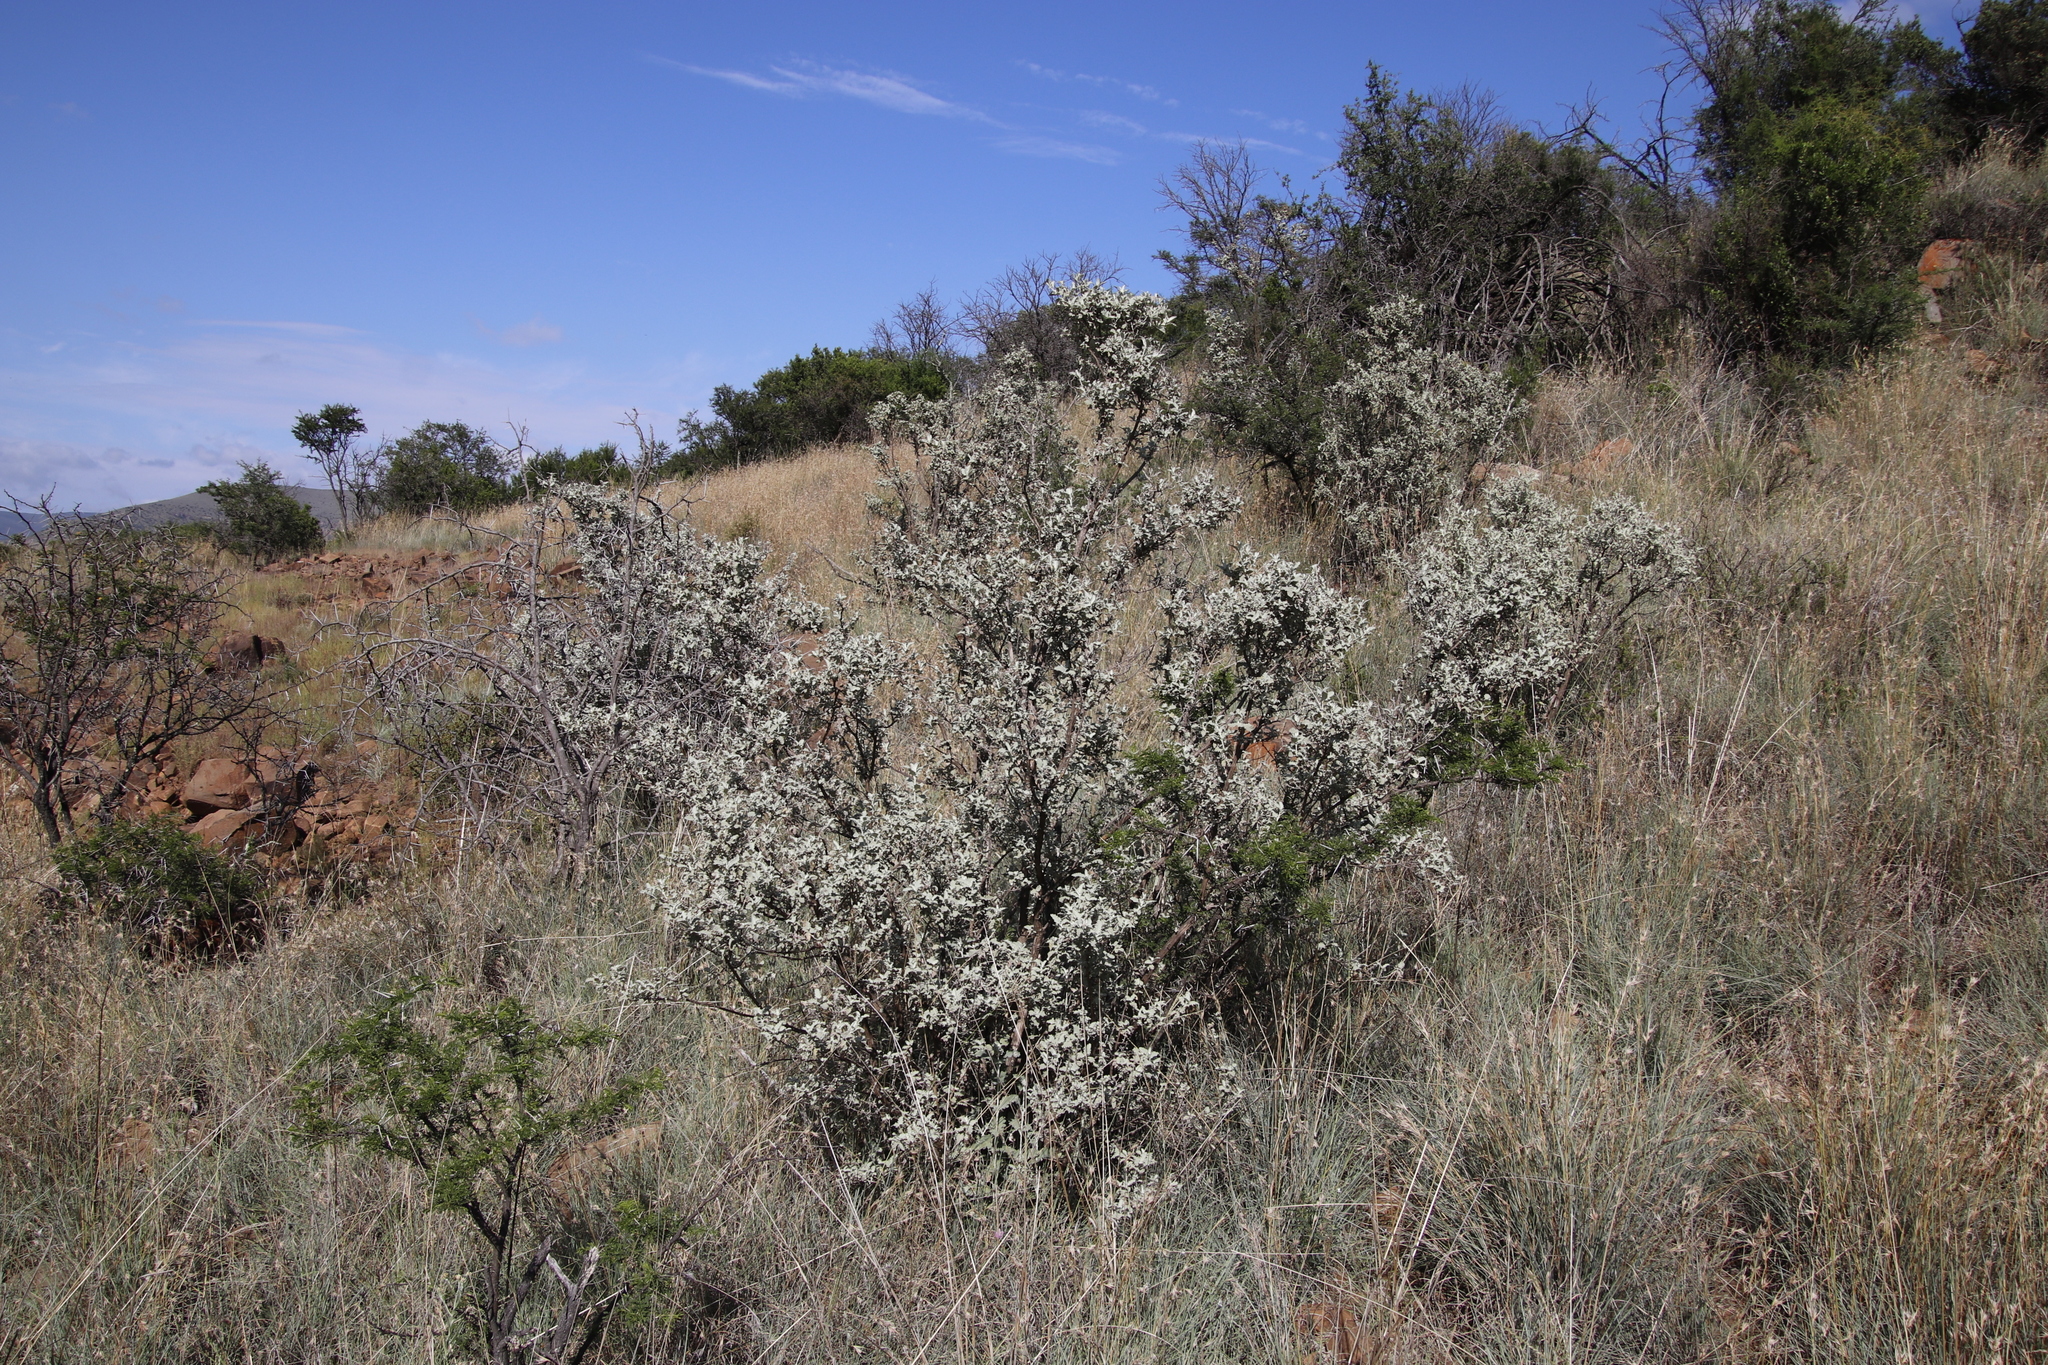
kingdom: Plantae
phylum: Tracheophyta
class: Magnoliopsida
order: Lamiales
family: Scrophulariaceae
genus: Buddleja
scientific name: Buddleja glomerata
